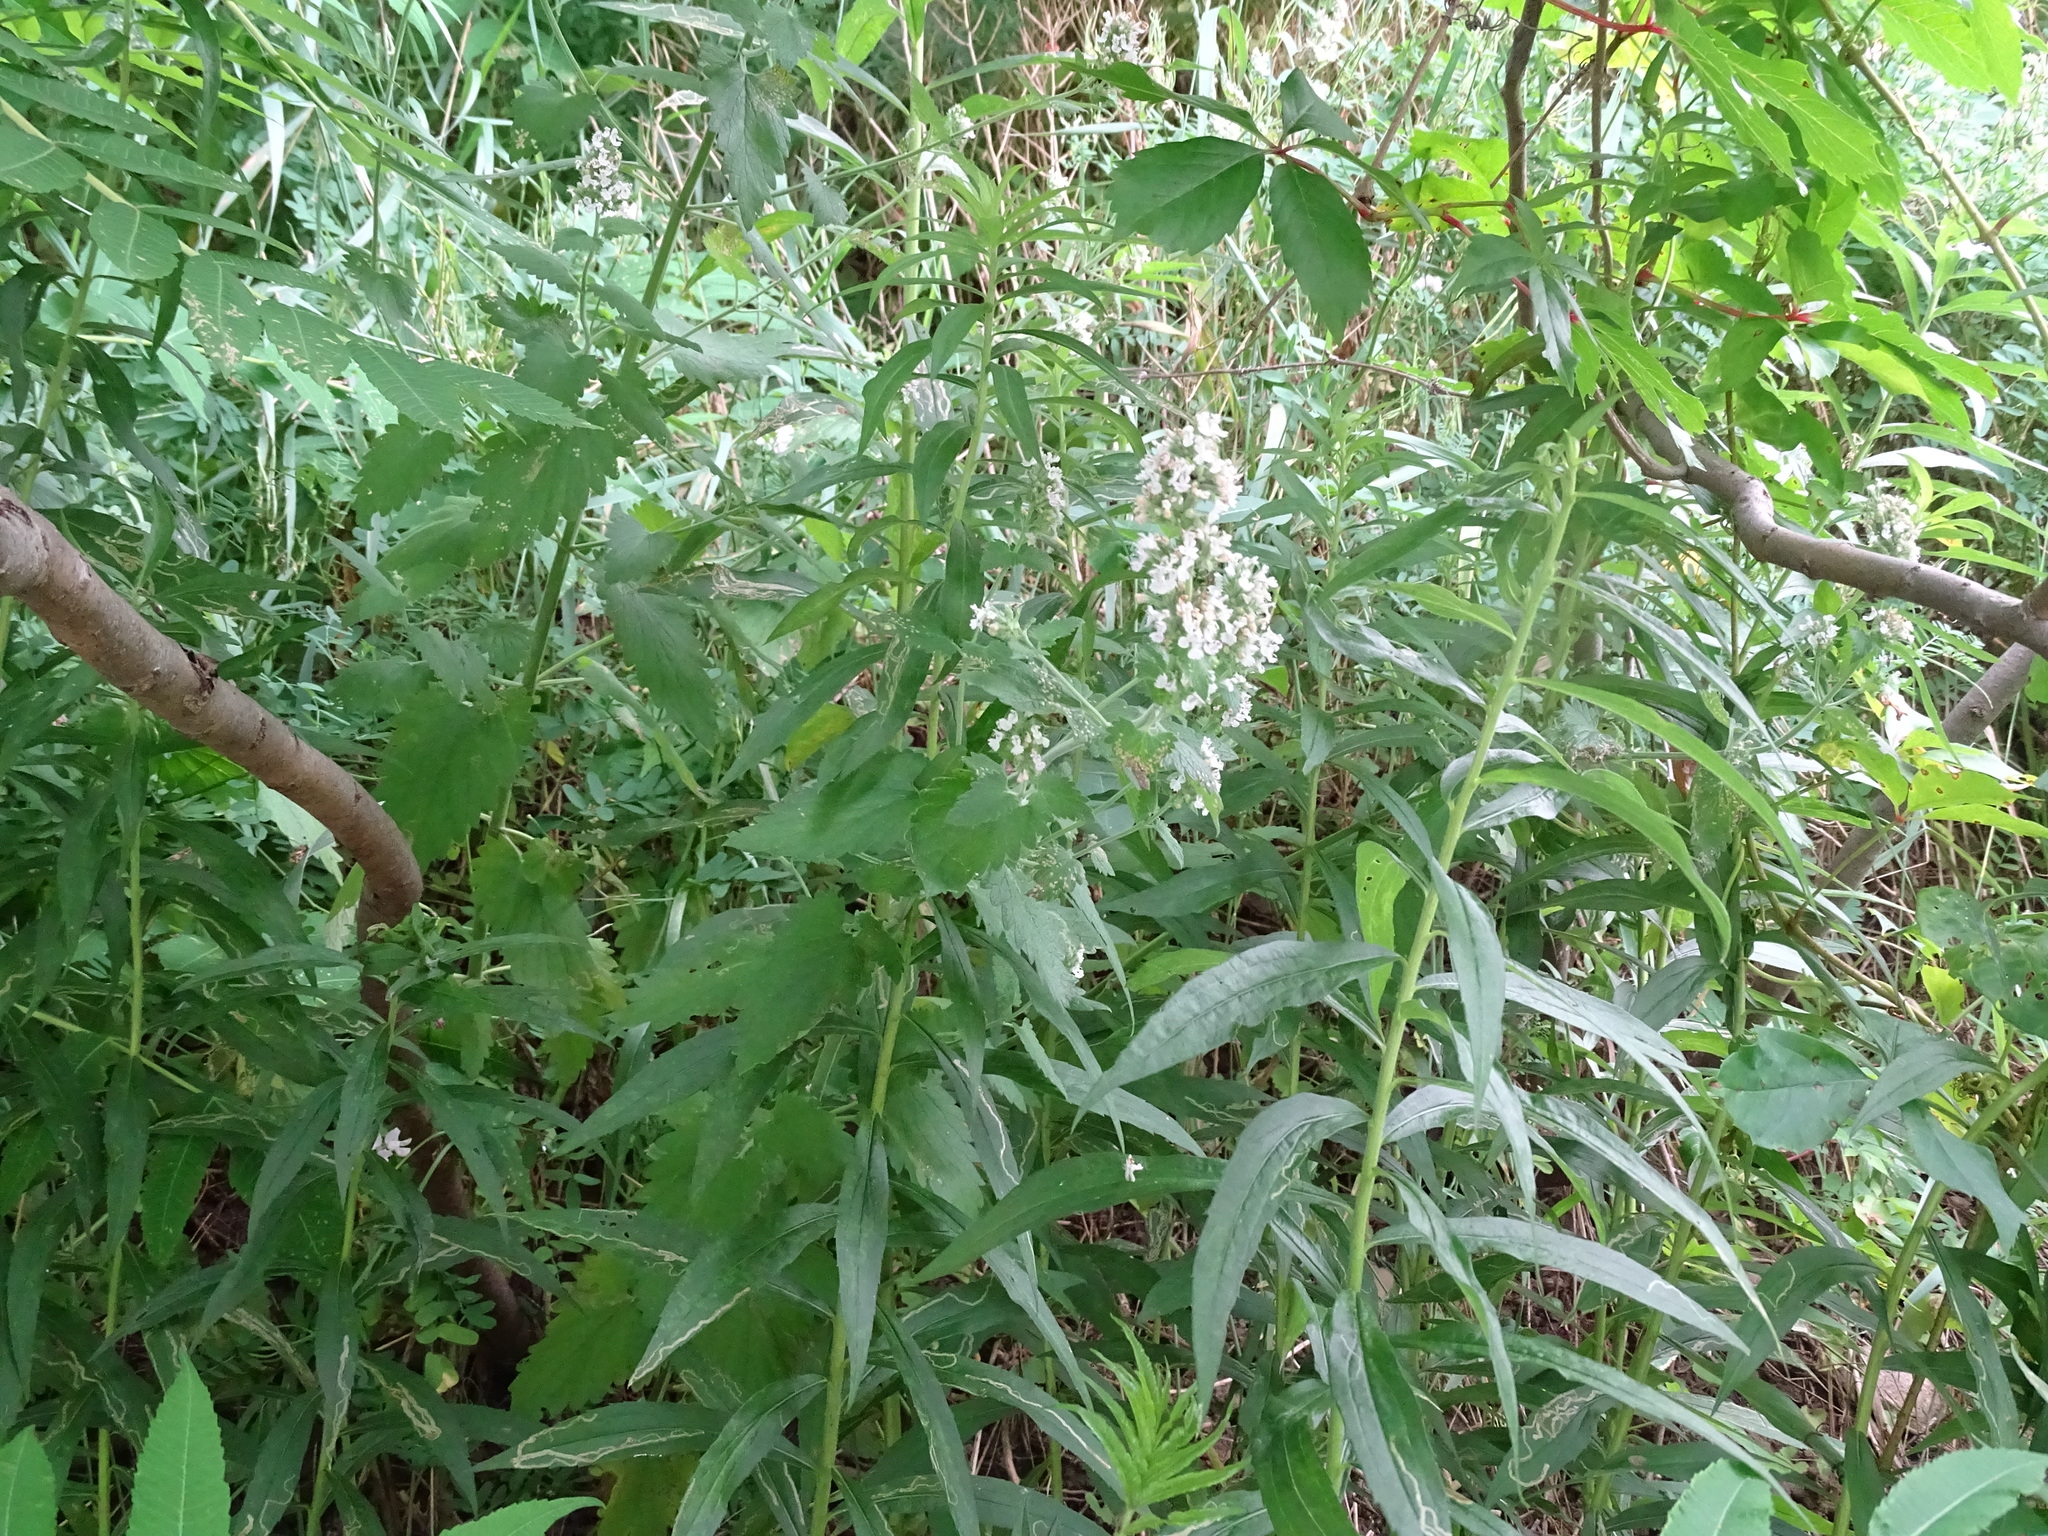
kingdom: Plantae
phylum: Tracheophyta
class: Magnoliopsida
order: Lamiales
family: Lamiaceae
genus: Nepeta
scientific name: Nepeta cataria
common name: Catnip
